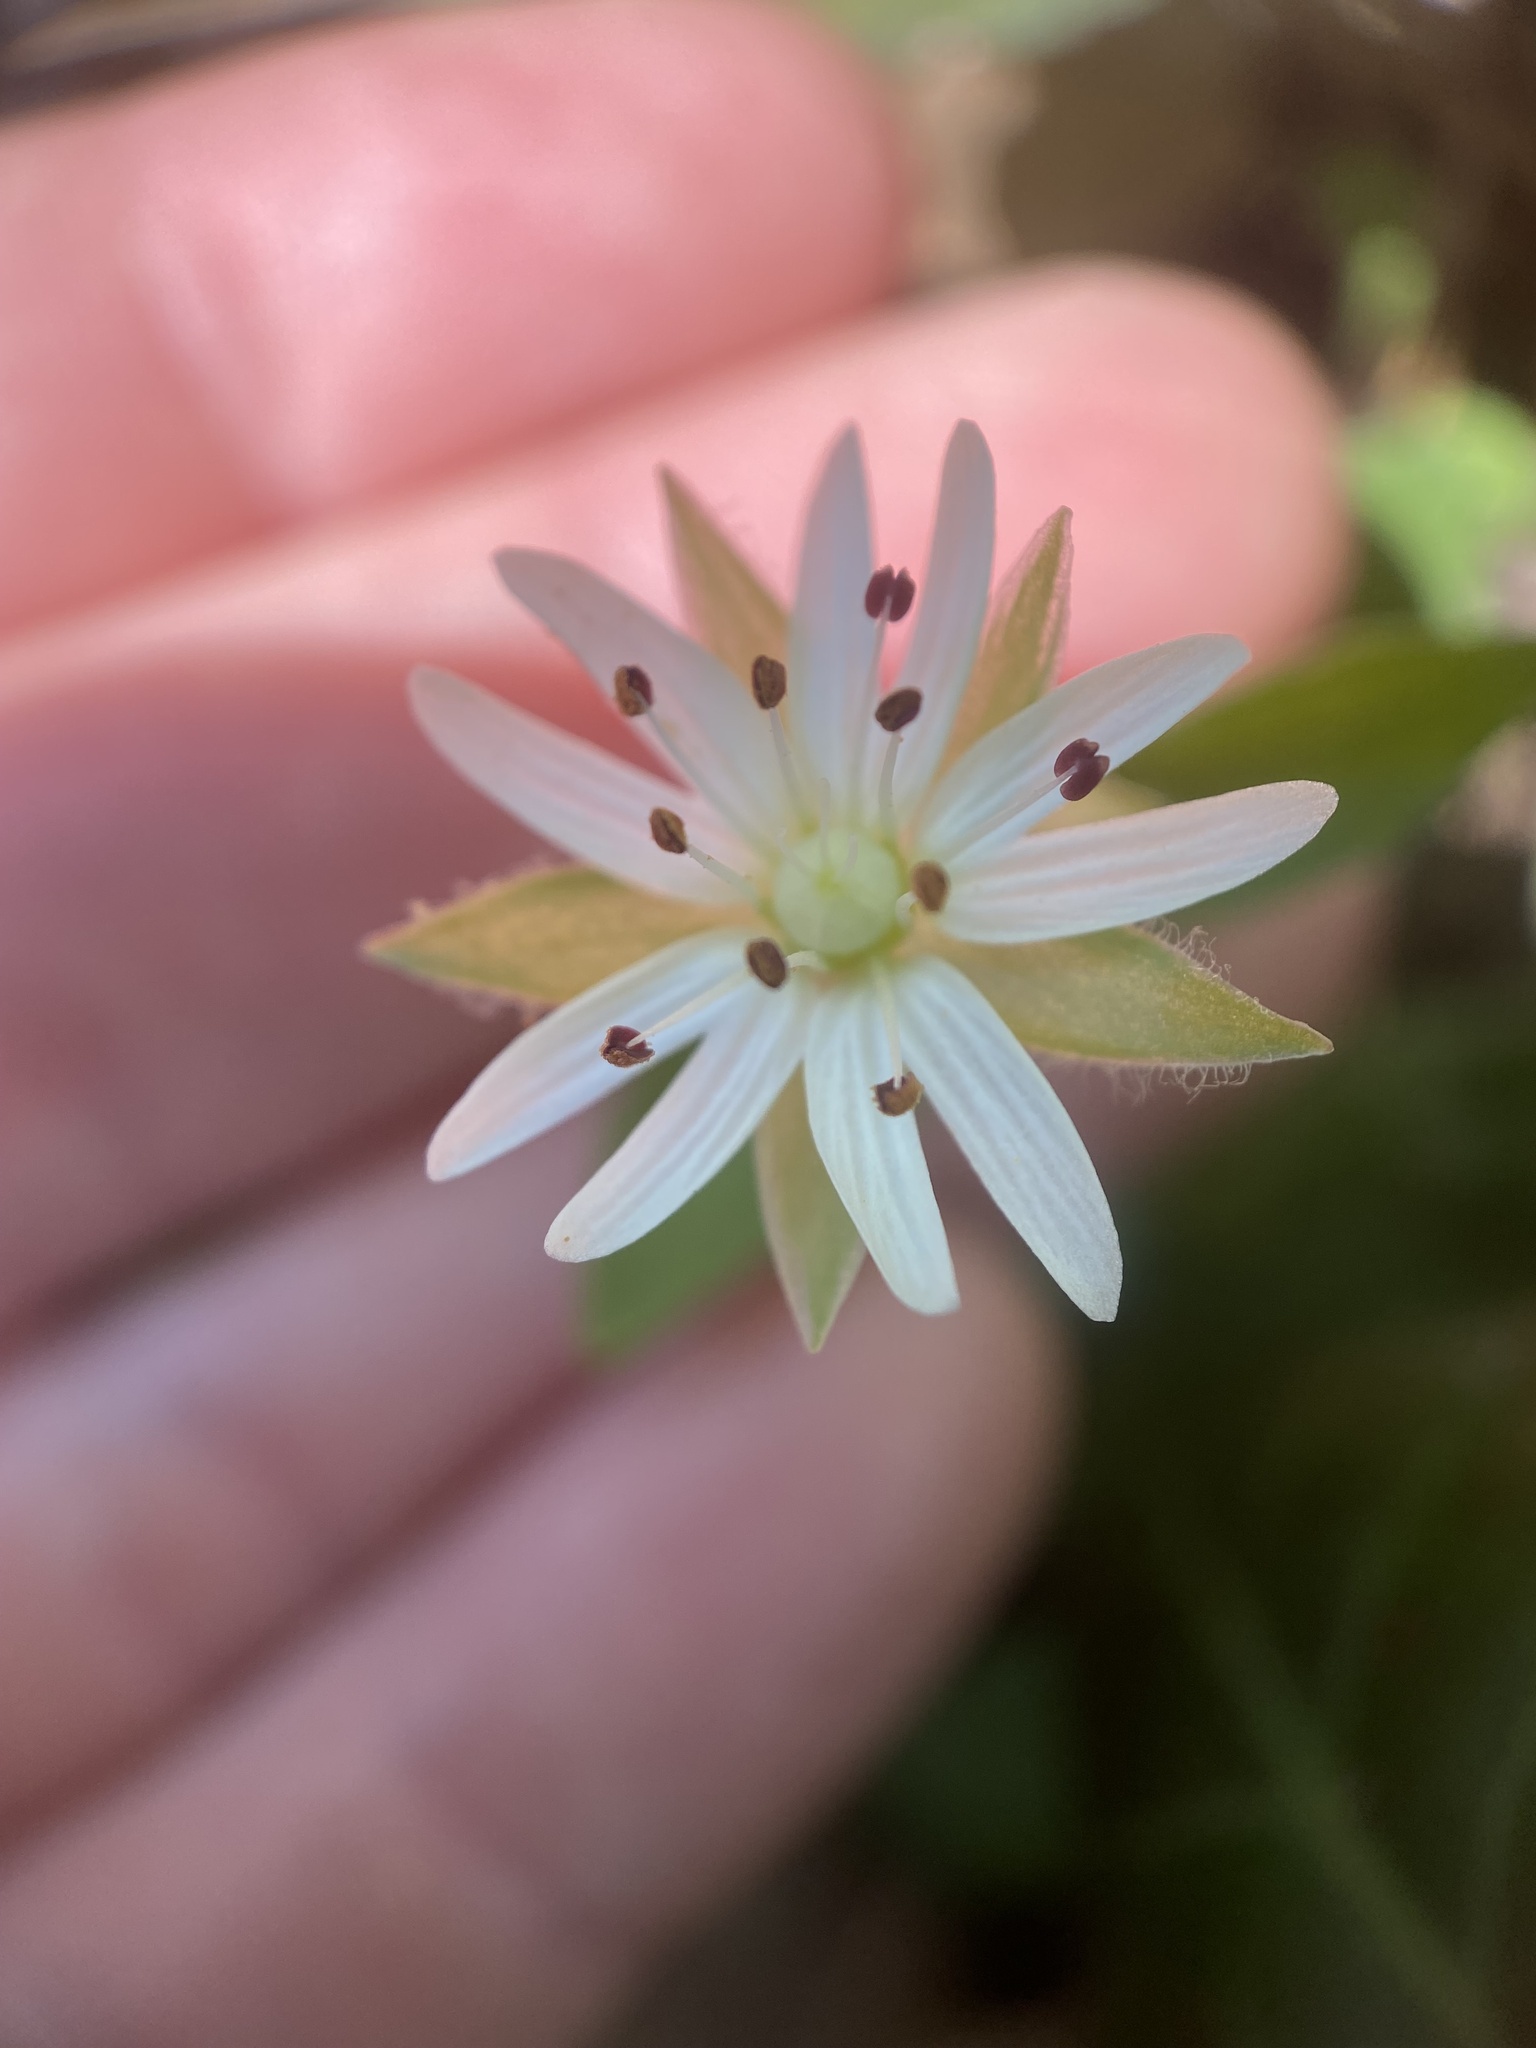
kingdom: Plantae
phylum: Tracheophyta
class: Magnoliopsida
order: Caryophyllales
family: Caryophyllaceae
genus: Stellaria
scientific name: Stellaria corei
